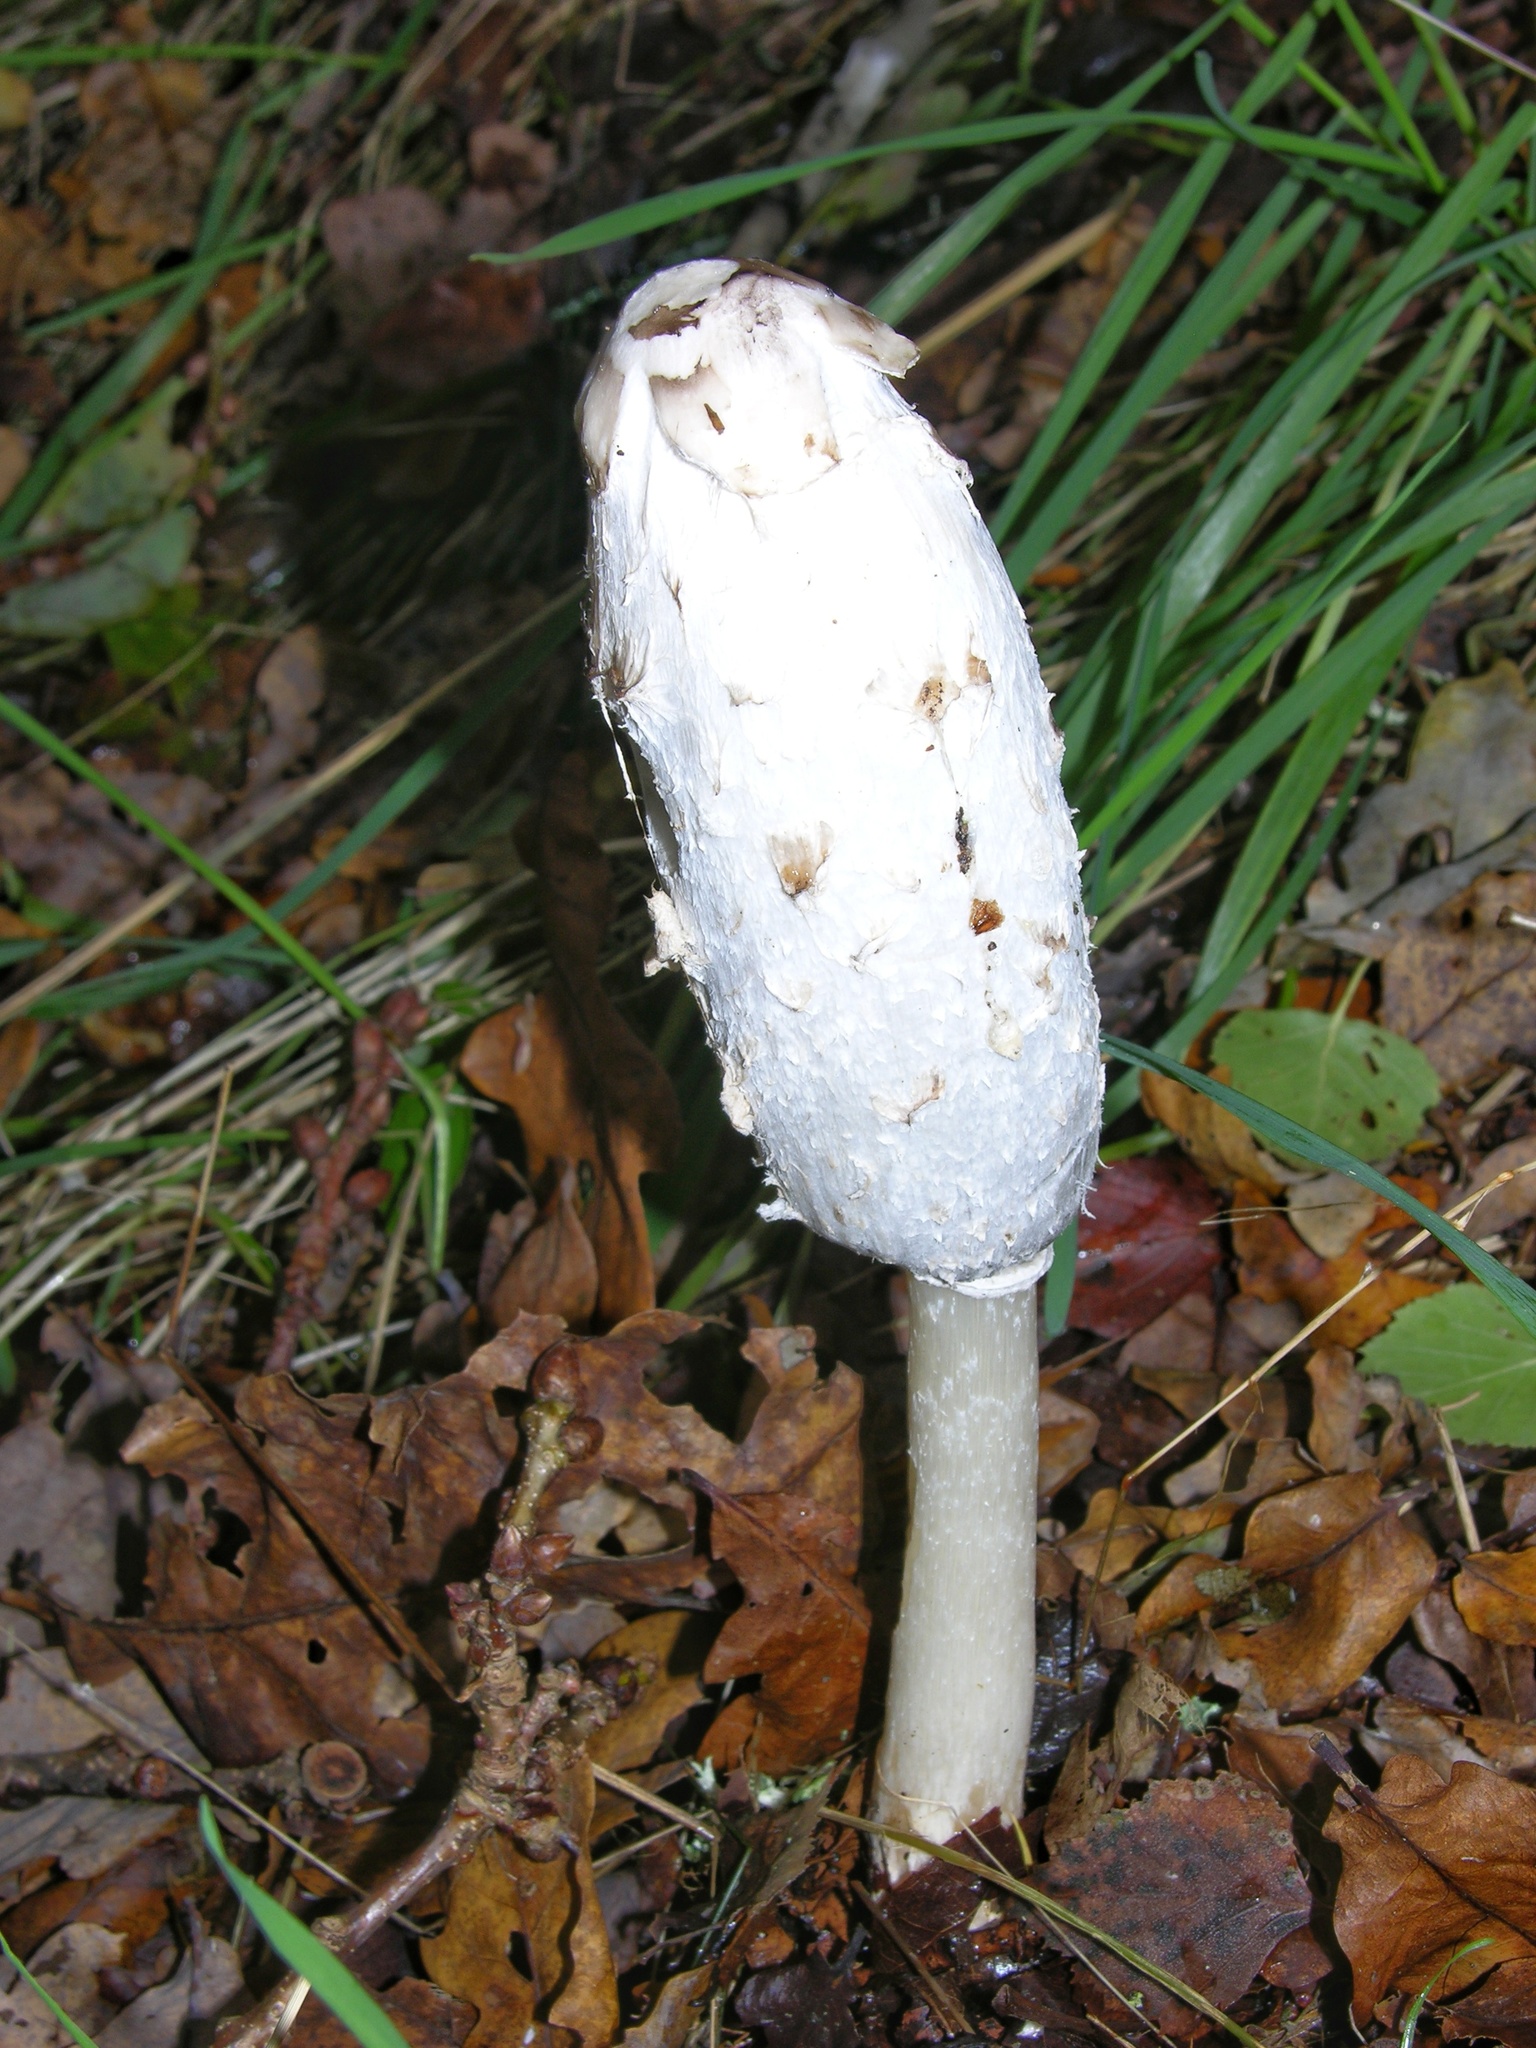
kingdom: Fungi
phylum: Basidiomycota
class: Agaricomycetes
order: Agaricales
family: Agaricaceae
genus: Coprinus
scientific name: Coprinus comatus
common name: Lawyer's wig
